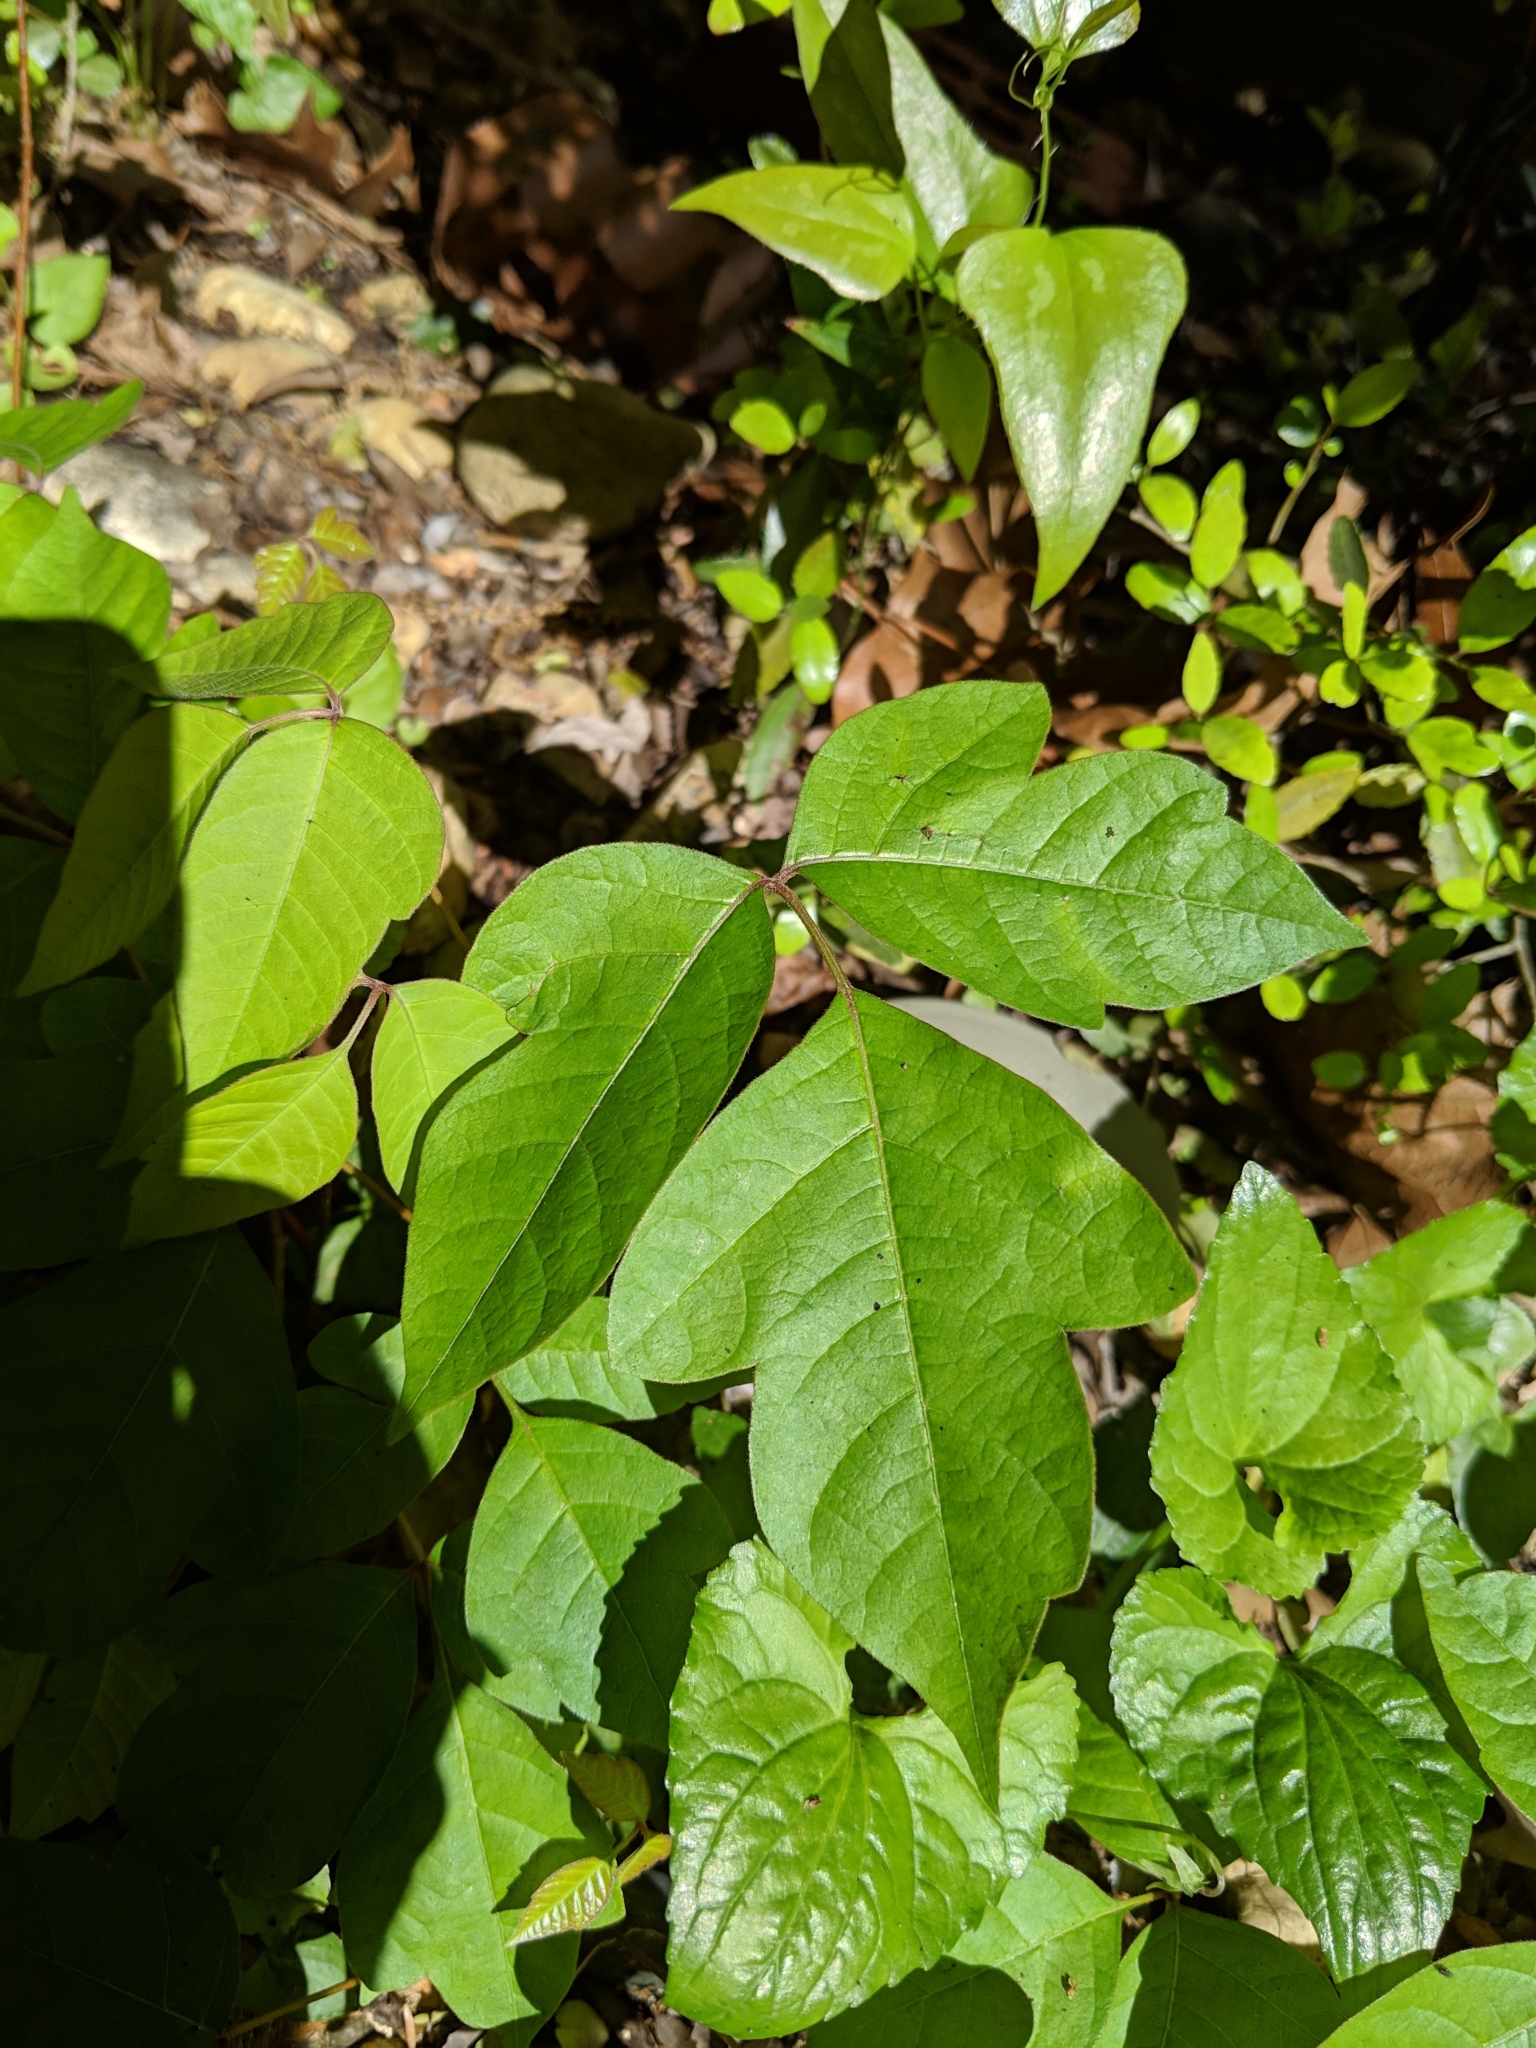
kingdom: Plantae
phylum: Tracheophyta
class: Magnoliopsida
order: Sapindales
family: Anacardiaceae
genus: Toxicodendron
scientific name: Toxicodendron radicans
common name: Poison ivy
